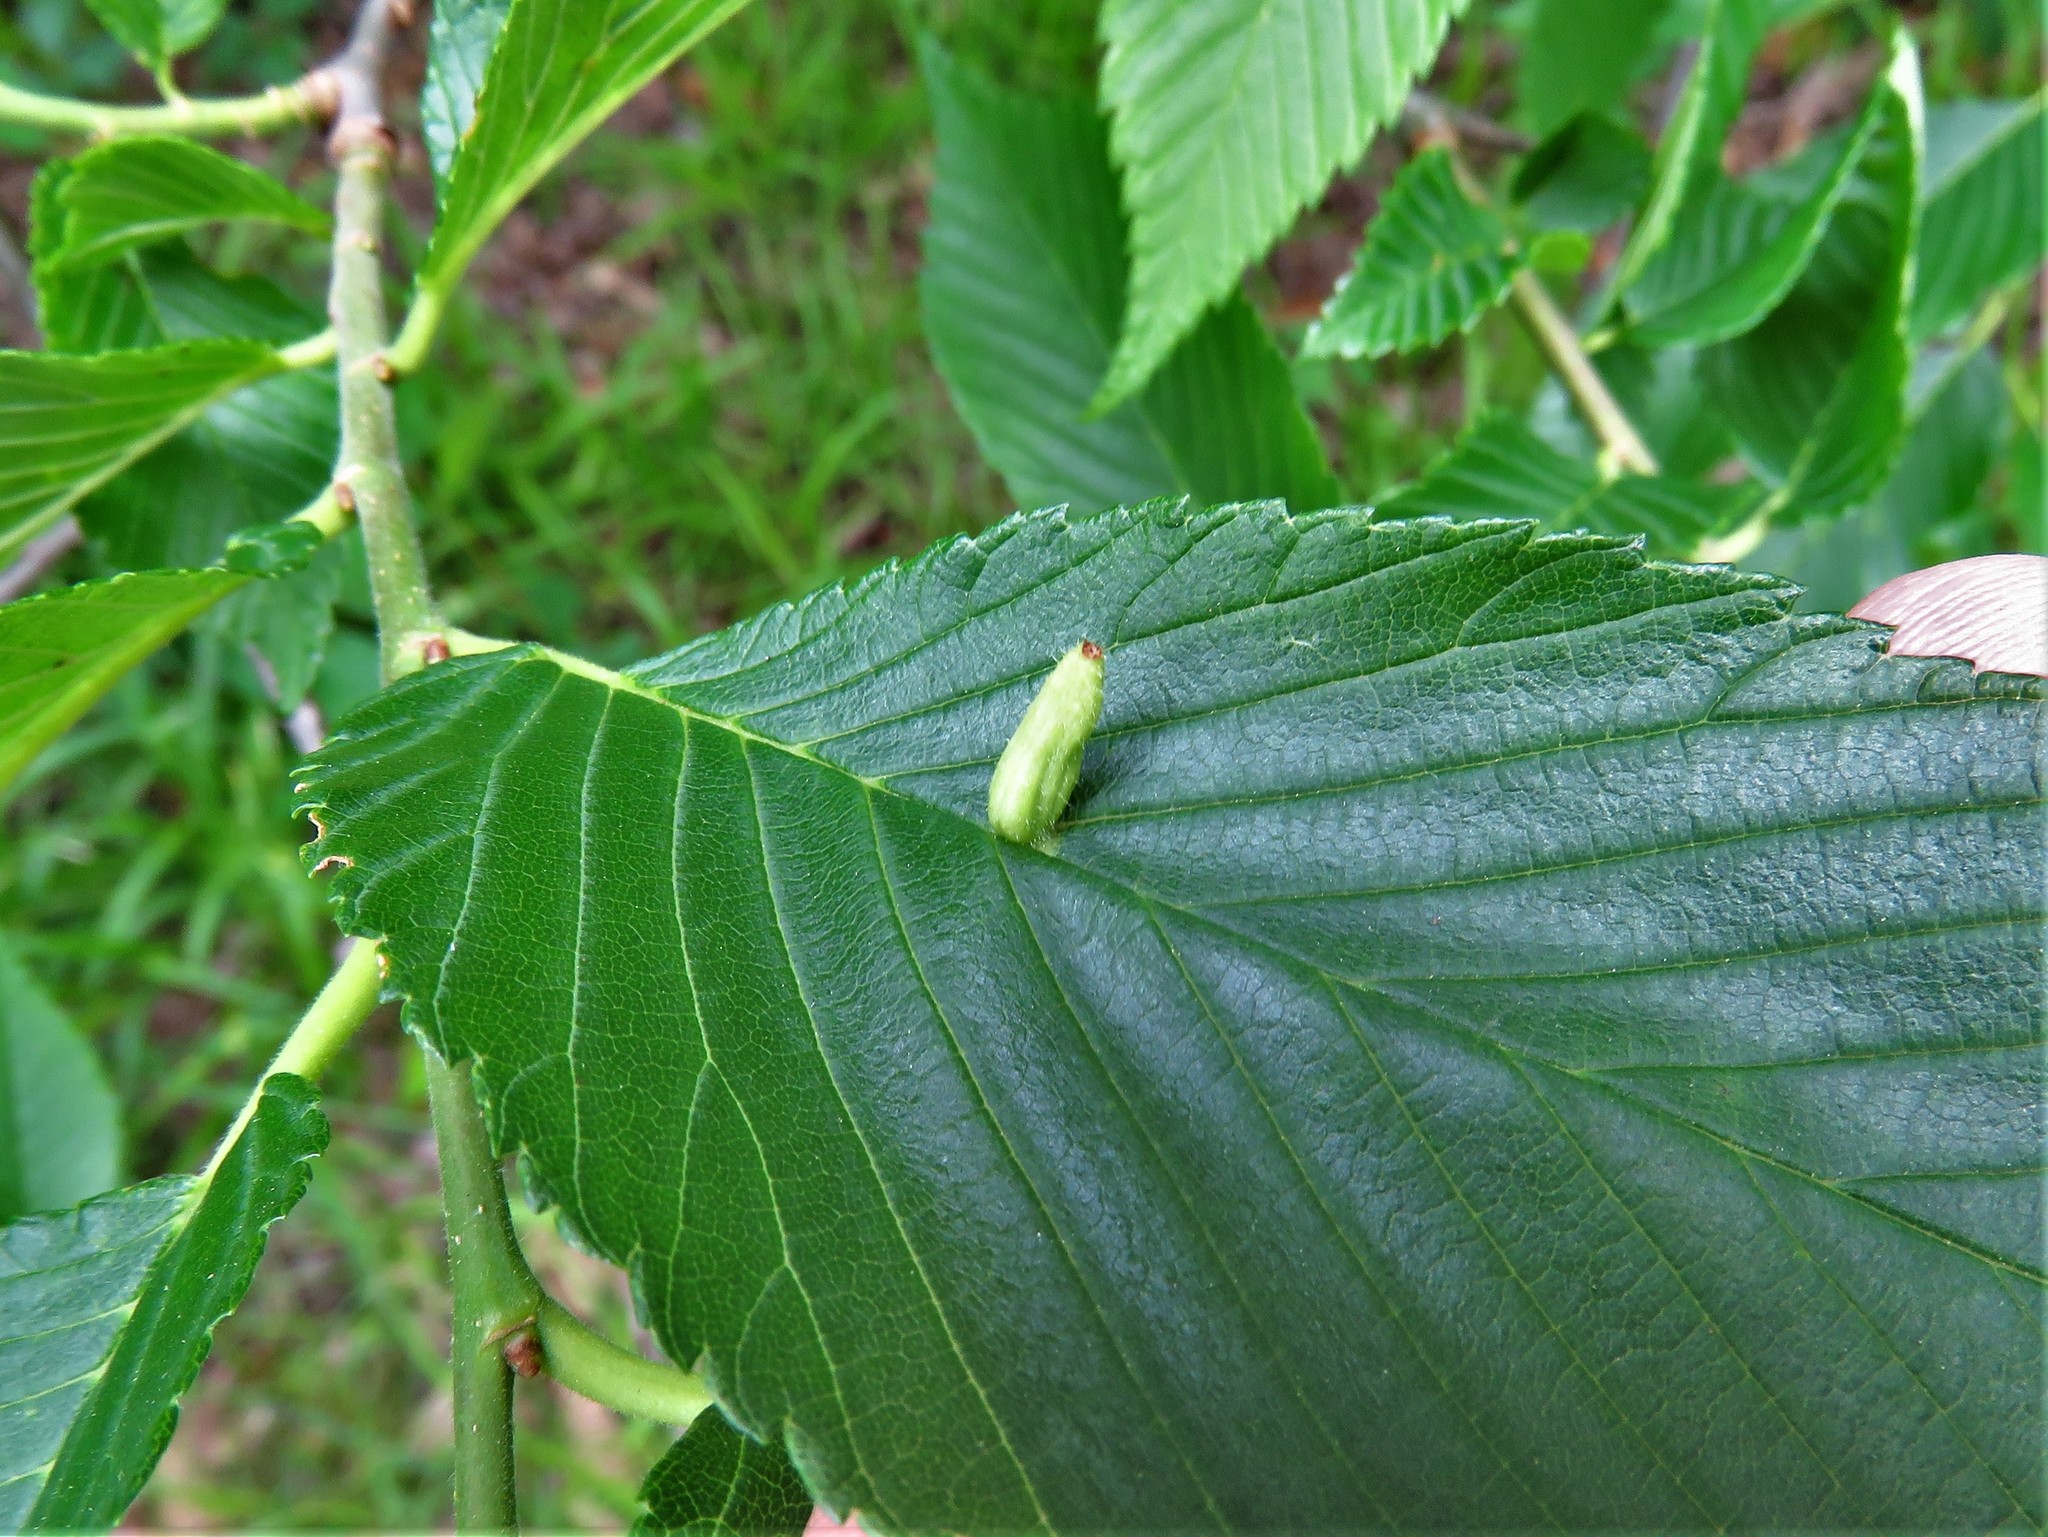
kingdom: Animalia
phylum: Arthropoda
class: Arachnida
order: Trombidiformes
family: Eriophyidae
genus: Aceria
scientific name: Aceria
